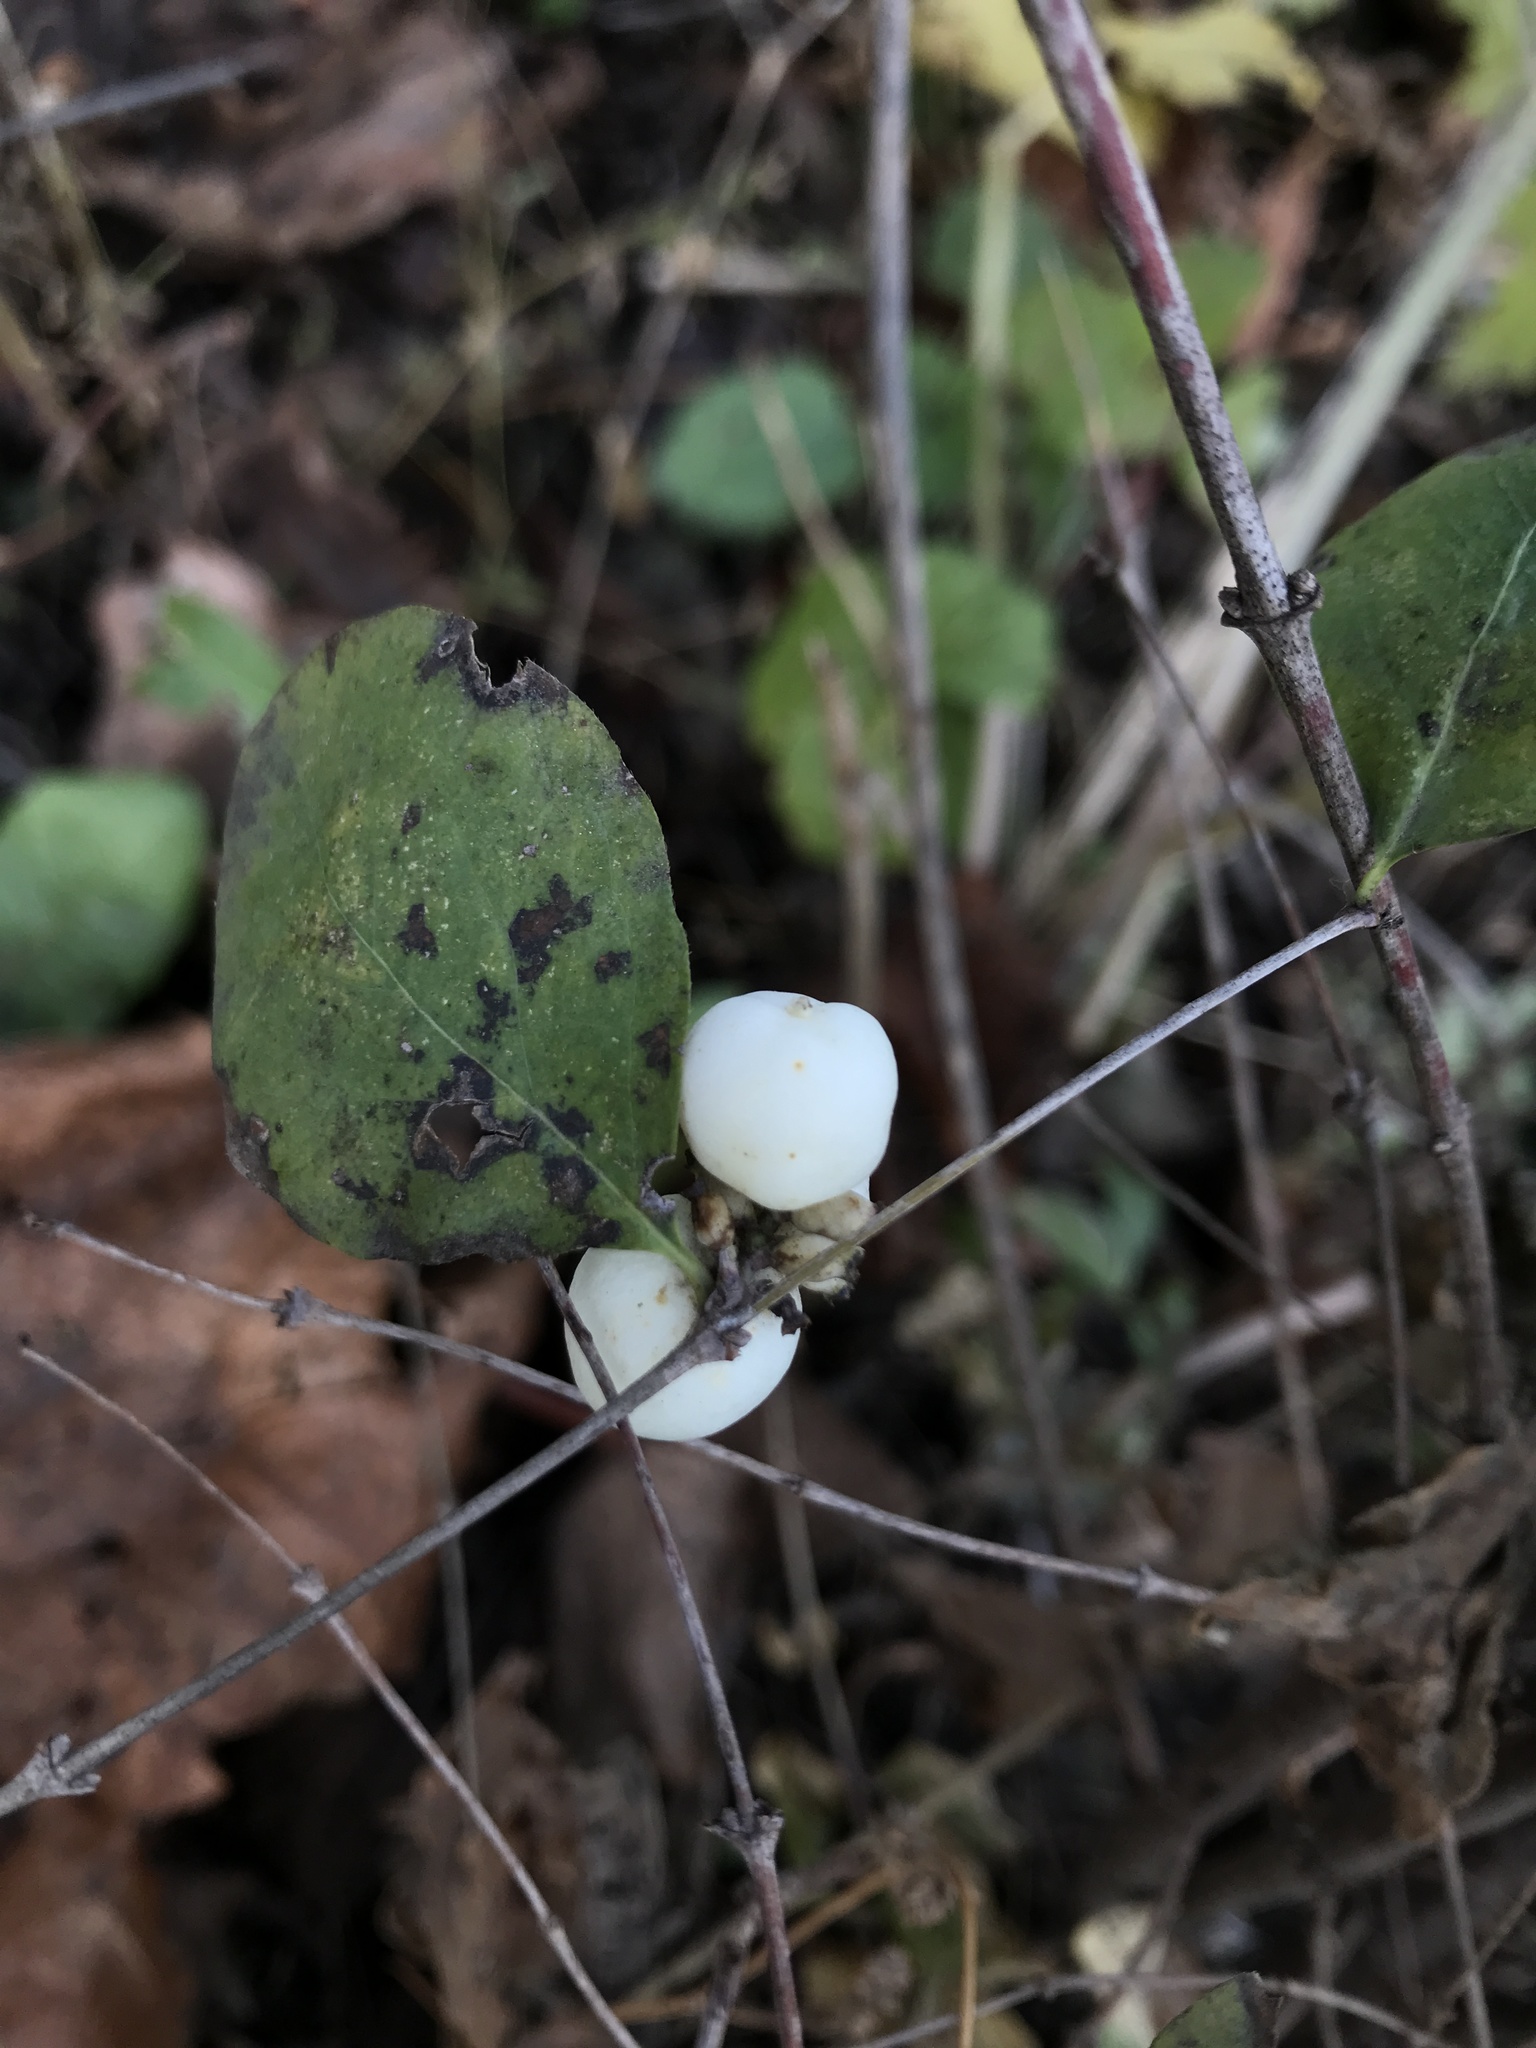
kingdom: Plantae
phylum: Tracheophyta
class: Magnoliopsida
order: Dipsacales
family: Caprifoliaceae
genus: Symphoricarpos
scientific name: Symphoricarpos albus
